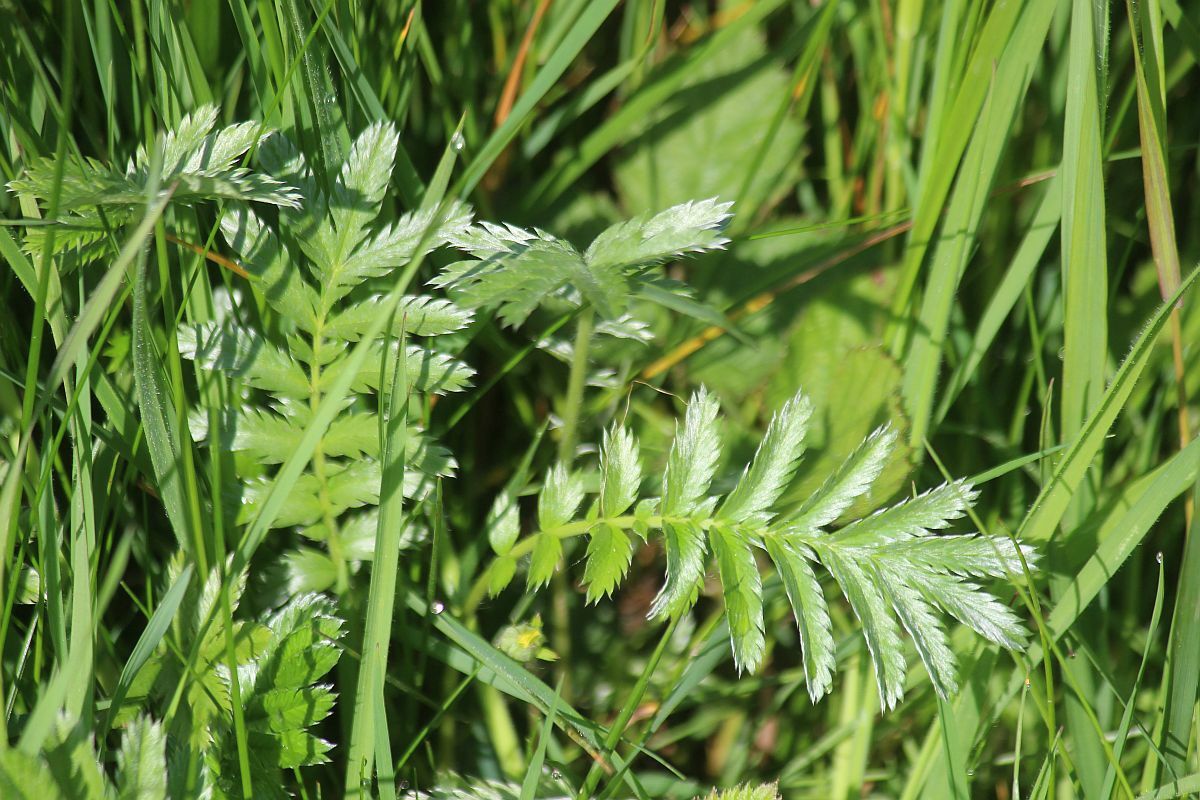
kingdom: Plantae
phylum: Tracheophyta
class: Magnoliopsida
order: Rosales
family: Rosaceae
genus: Argentina
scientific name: Argentina anserina
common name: Common silverweed
